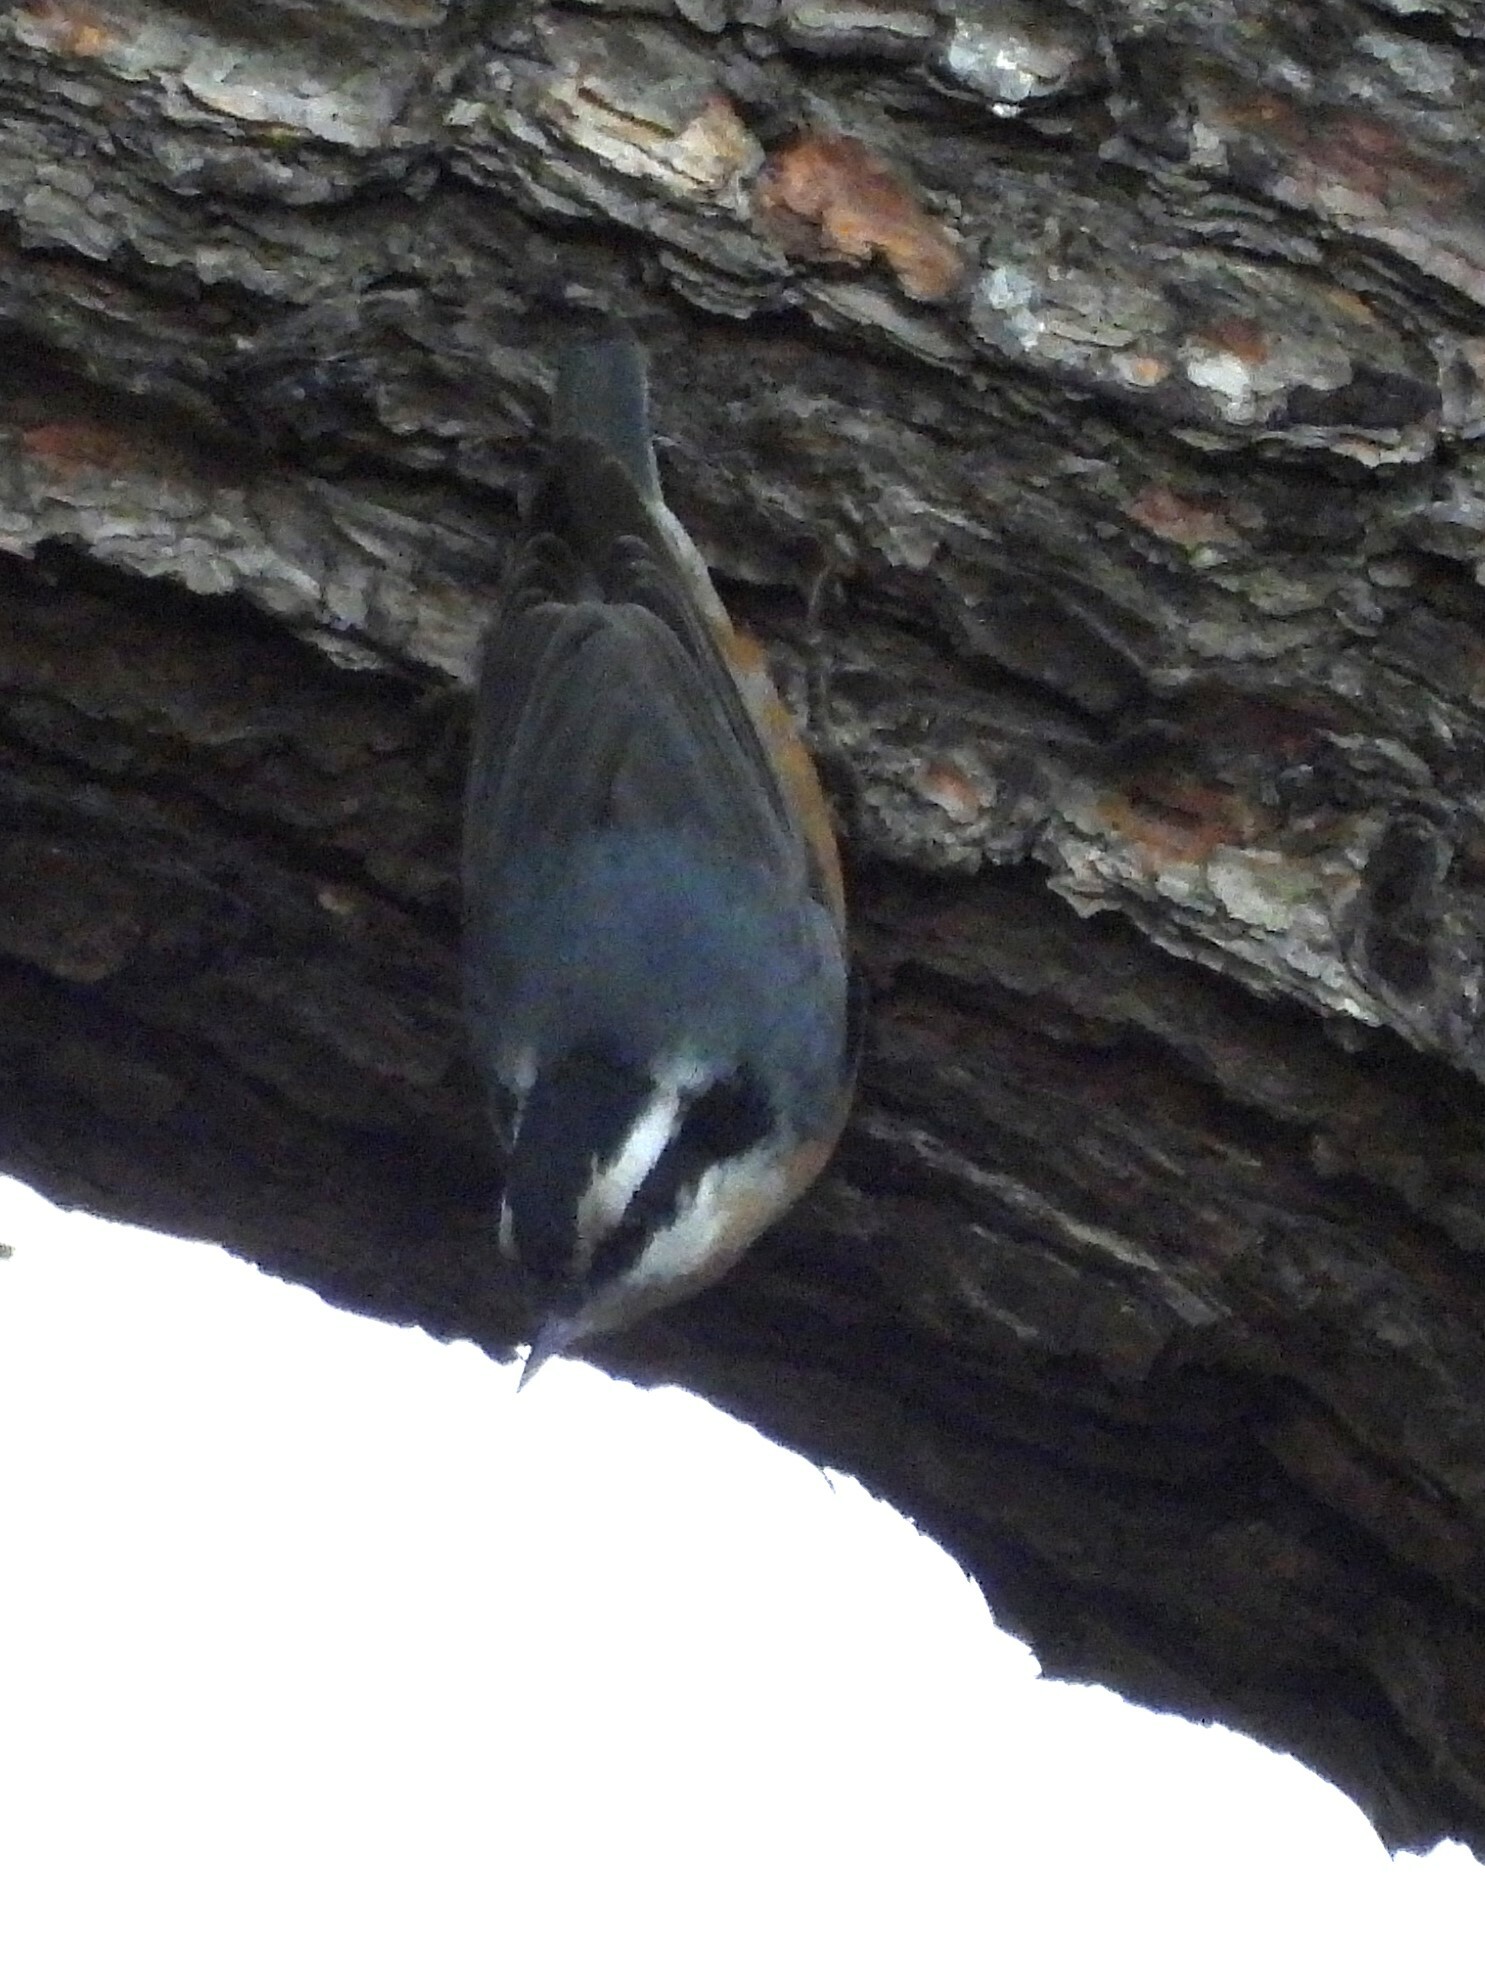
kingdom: Animalia
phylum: Chordata
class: Aves
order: Passeriformes
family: Sittidae
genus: Sitta
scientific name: Sitta canadensis
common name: Red-breasted nuthatch
